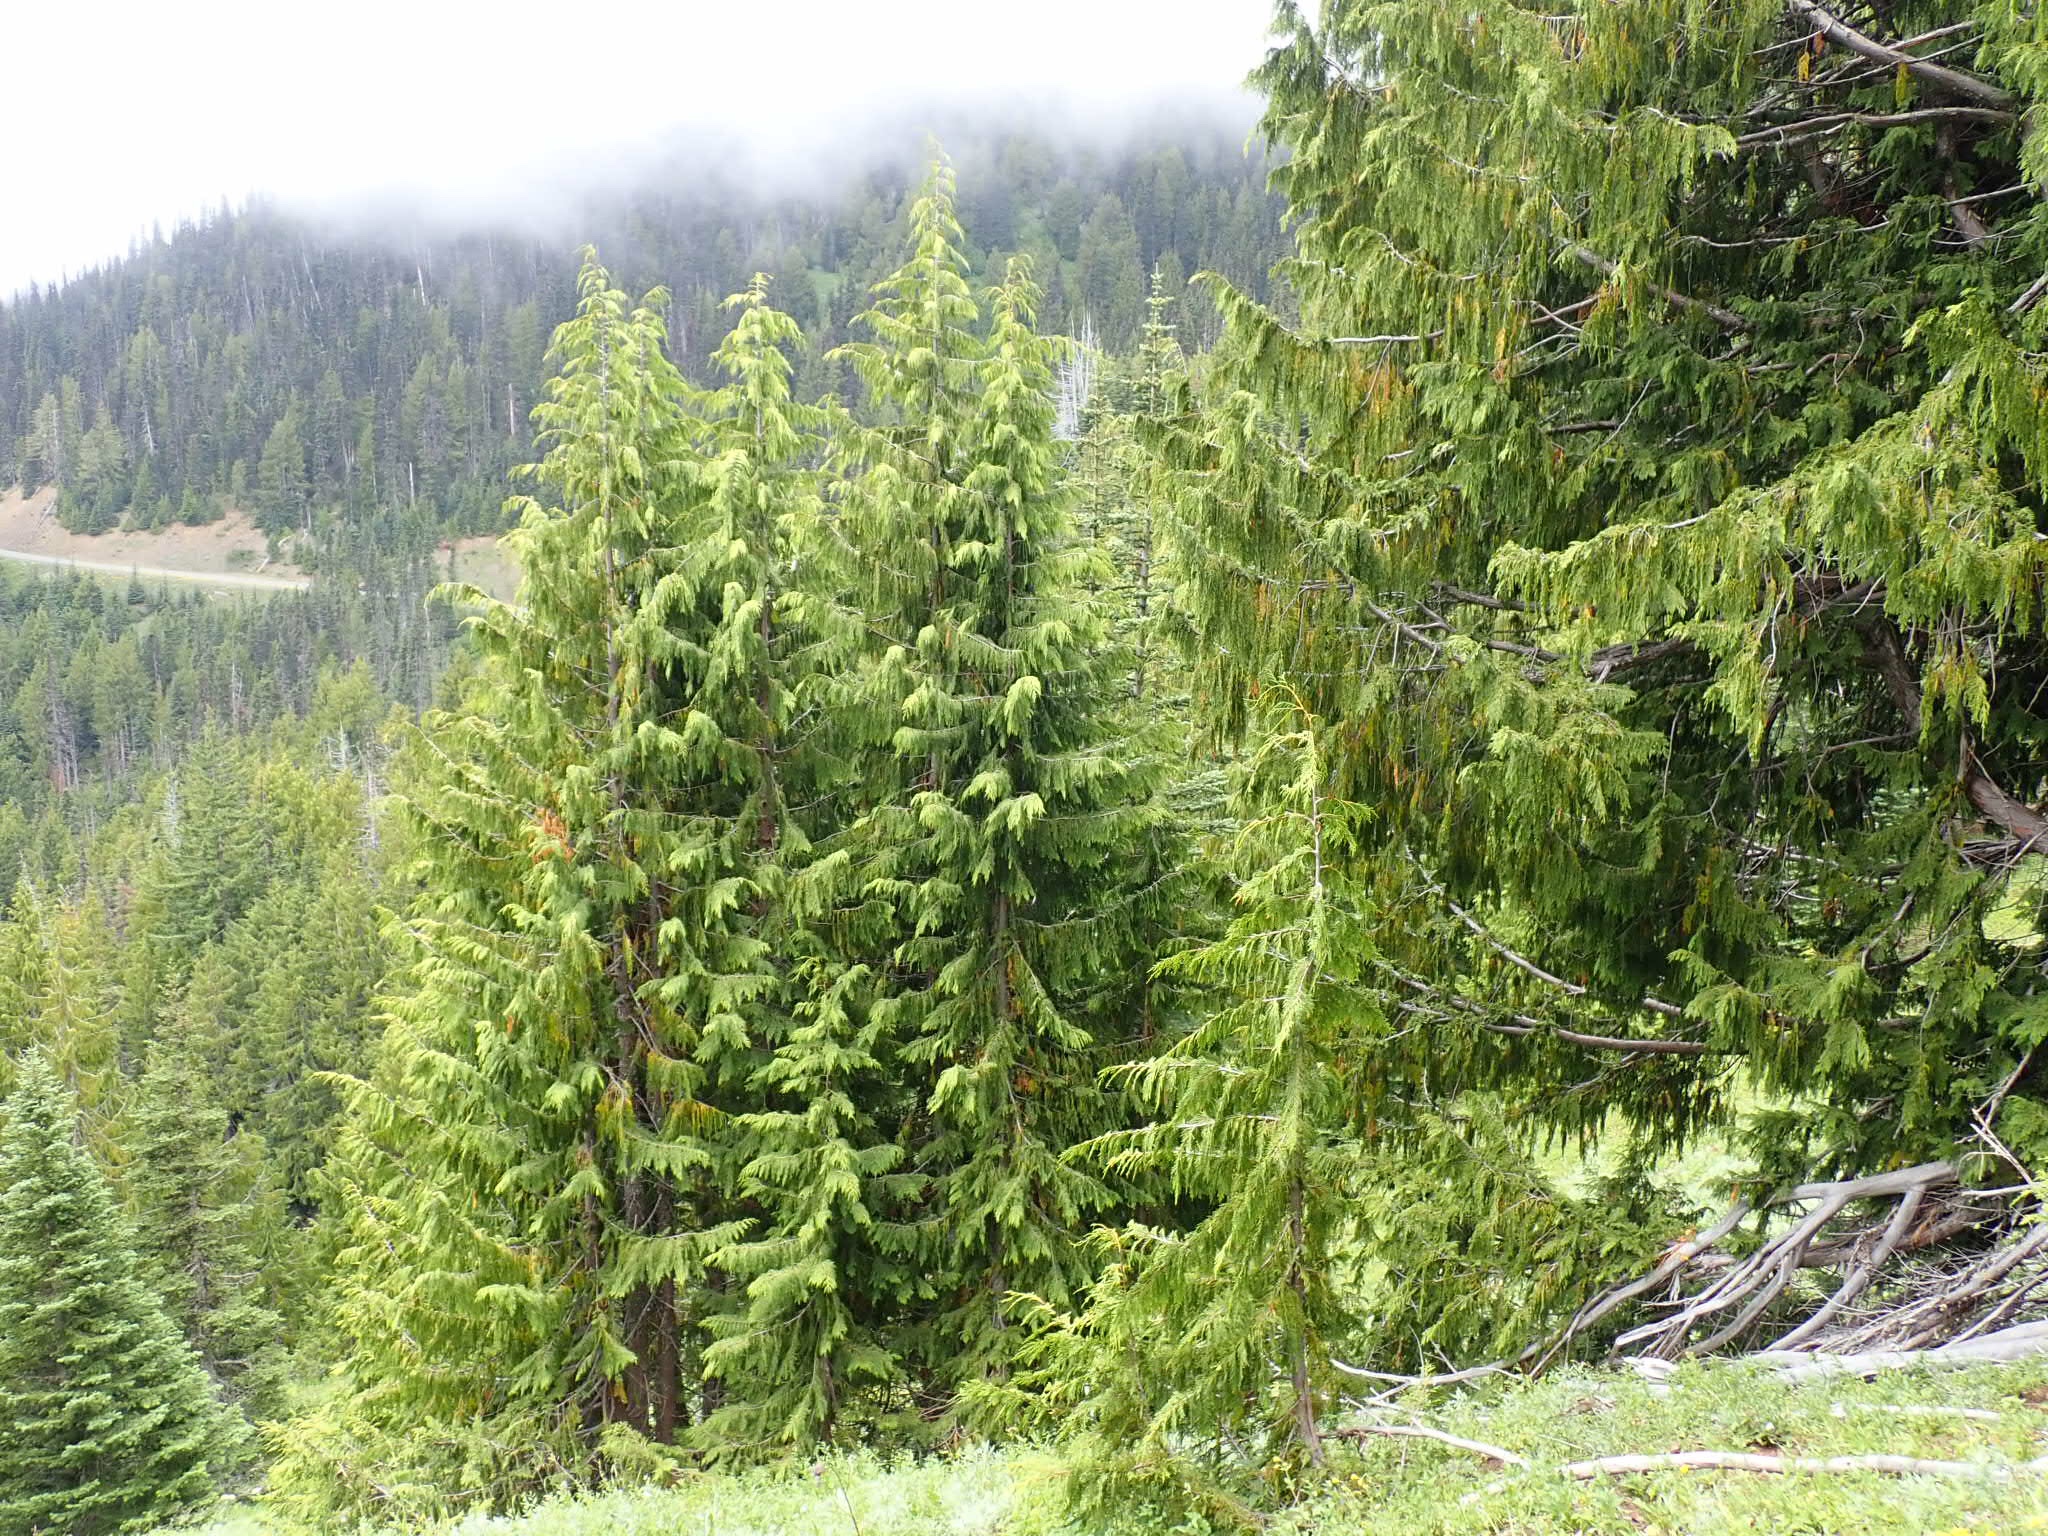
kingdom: Plantae
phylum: Tracheophyta
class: Pinopsida
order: Pinales
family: Cupressaceae
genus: Xanthocyparis
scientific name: Xanthocyparis nootkatensis
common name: Nootka cypress
